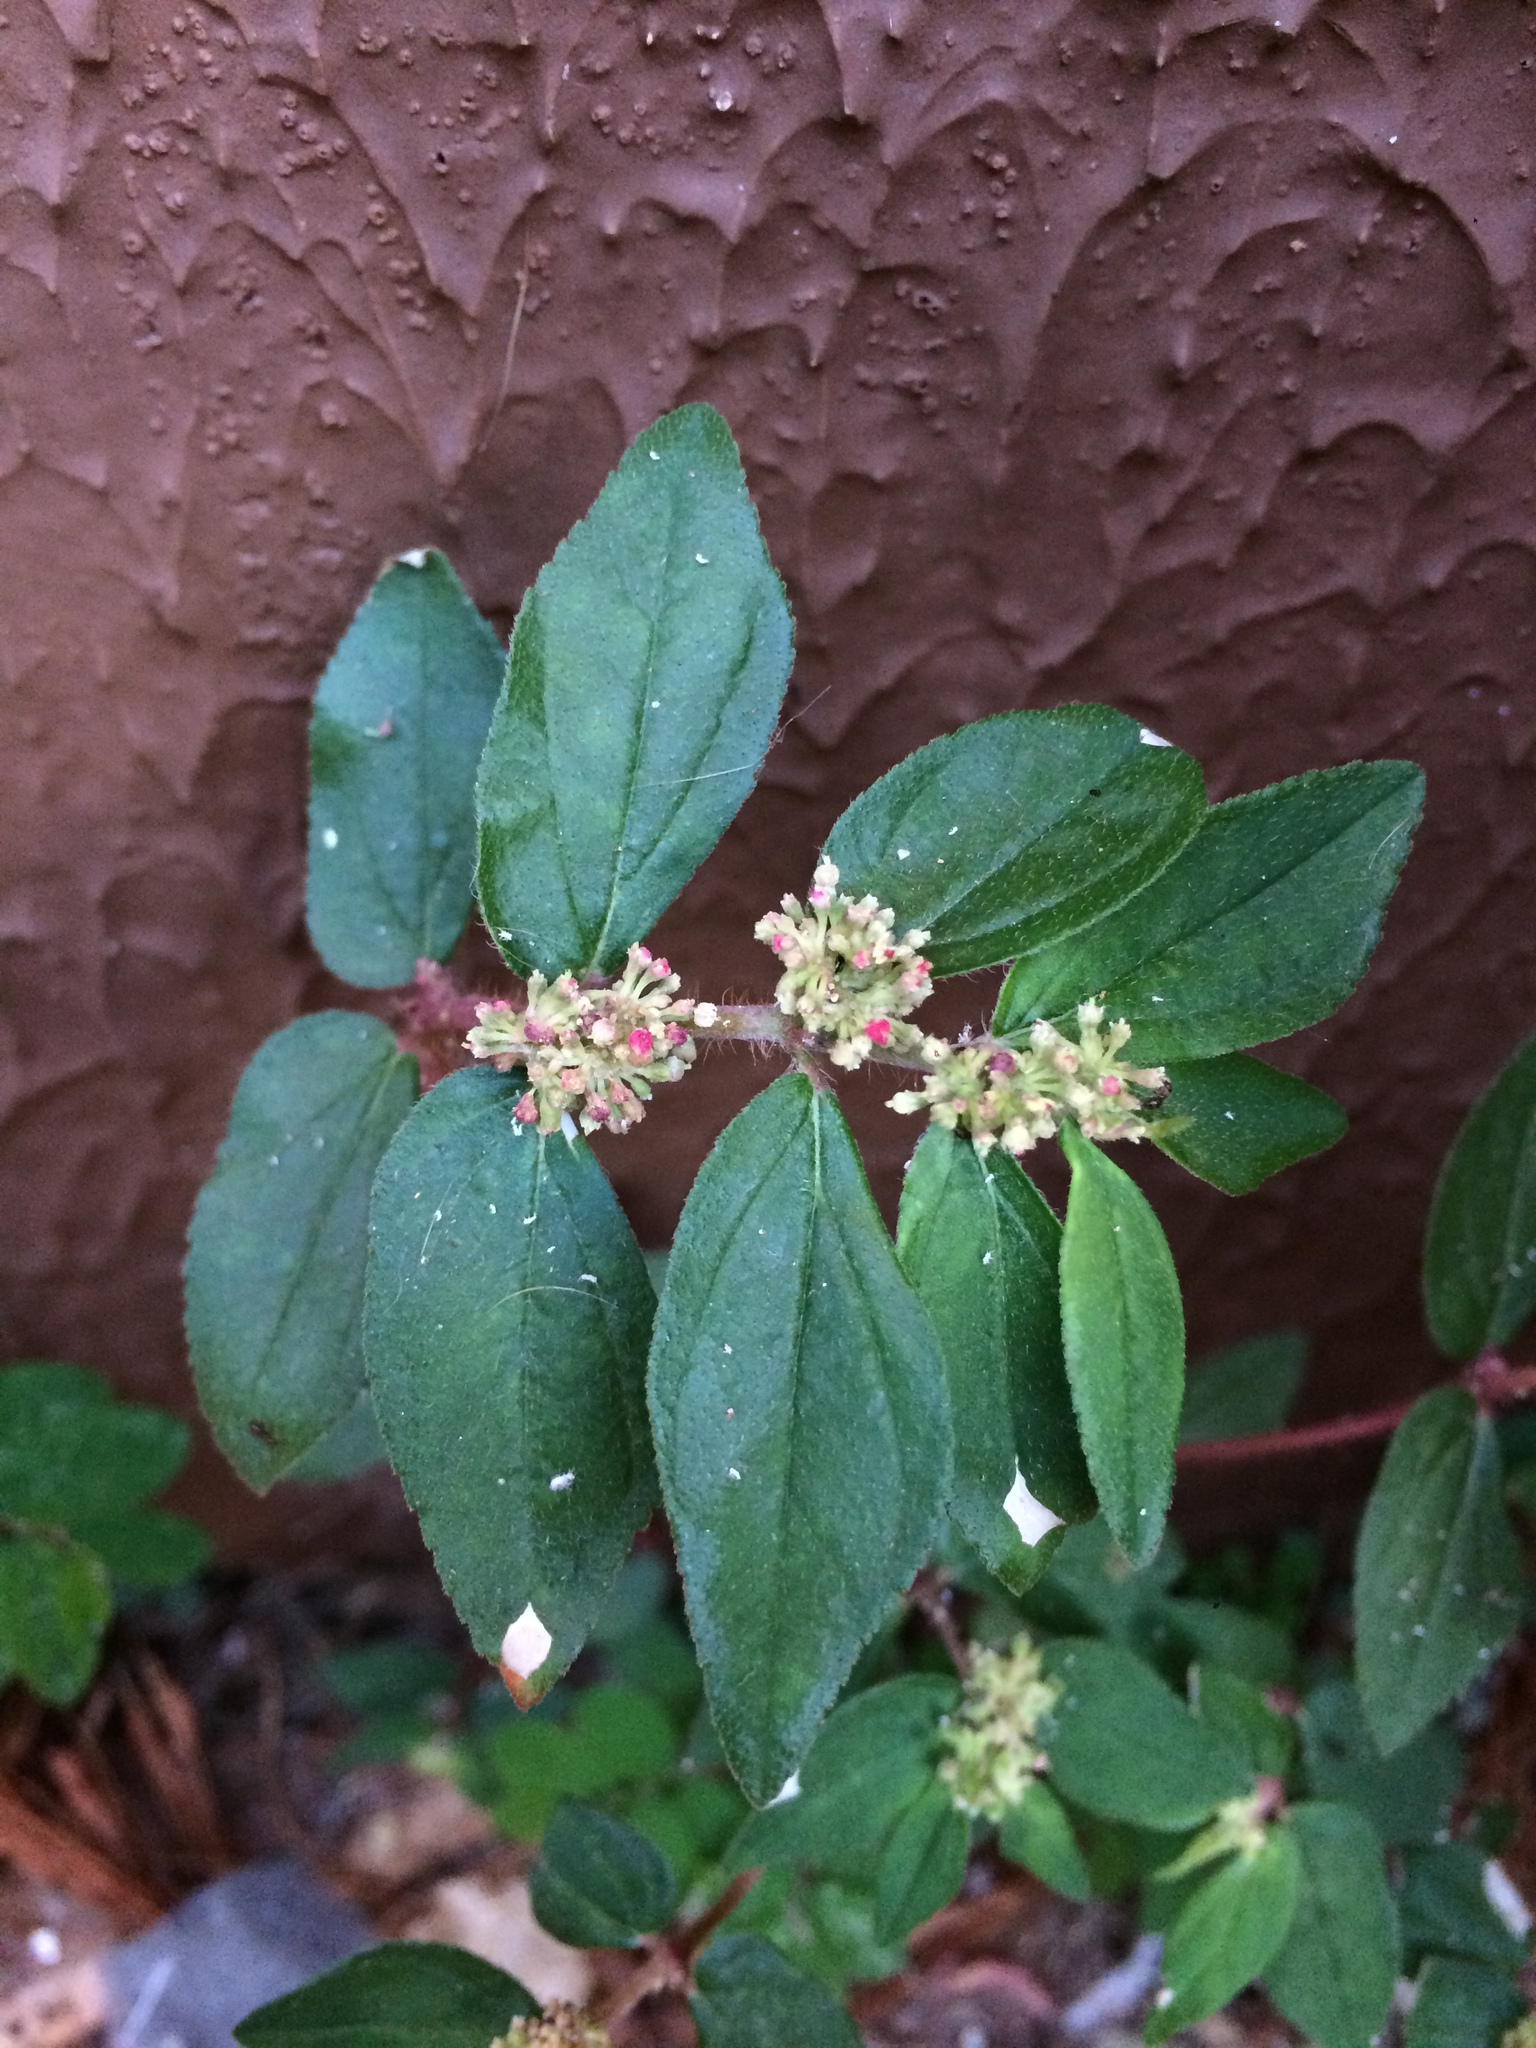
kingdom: Plantae
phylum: Tracheophyta
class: Magnoliopsida
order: Malpighiales
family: Euphorbiaceae
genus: Euphorbia
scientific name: Euphorbia hirta
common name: Pillpod sandmat
